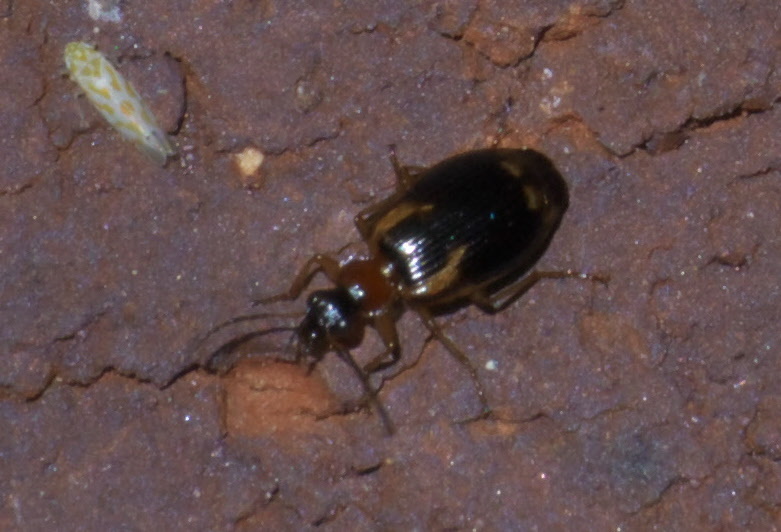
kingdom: Animalia
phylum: Arthropoda
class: Insecta
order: Coleoptera
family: Carabidae
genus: Lebia
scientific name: Lebia analis
